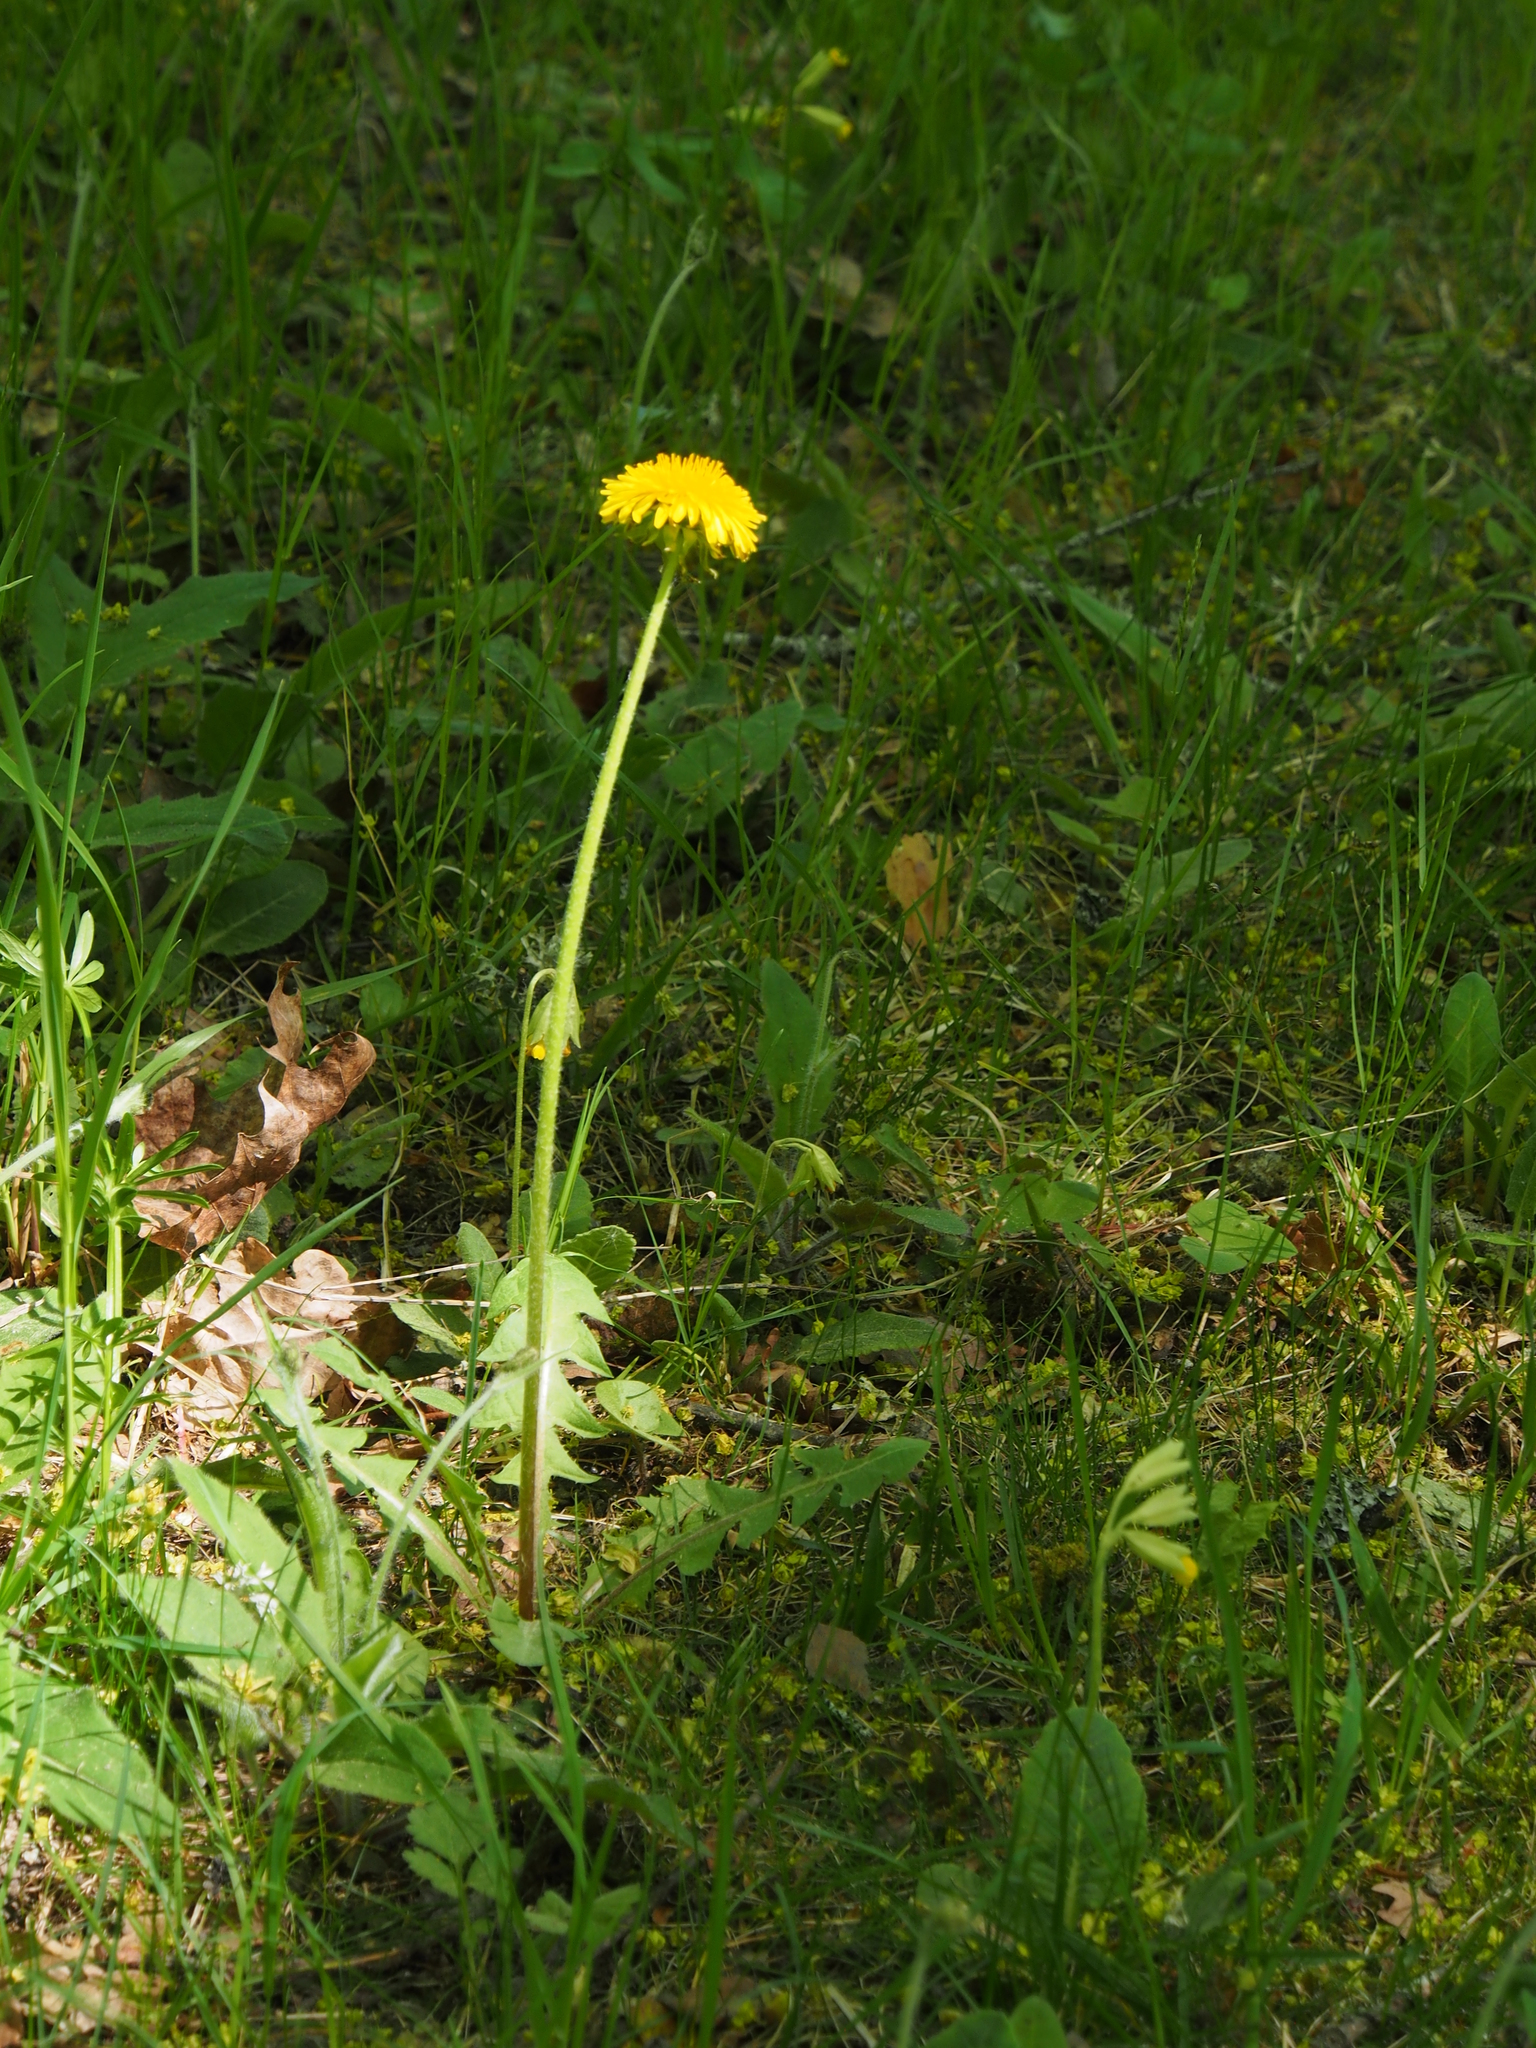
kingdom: Plantae
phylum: Tracheophyta
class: Magnoliopsida
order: Asterales
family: Asteraceae
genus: Taraxacum
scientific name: Taraxacum officinale
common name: Common dandelion
